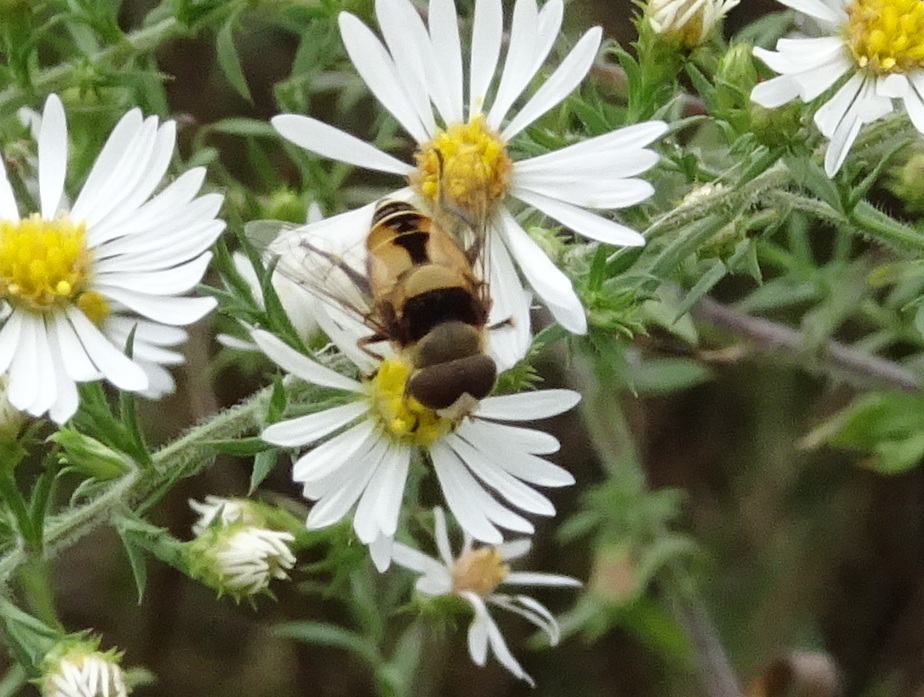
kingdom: Animalia
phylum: Arthropoda
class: Insecta
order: Diptera
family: Syrphidae
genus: Palpada
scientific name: Palpada pusilla
